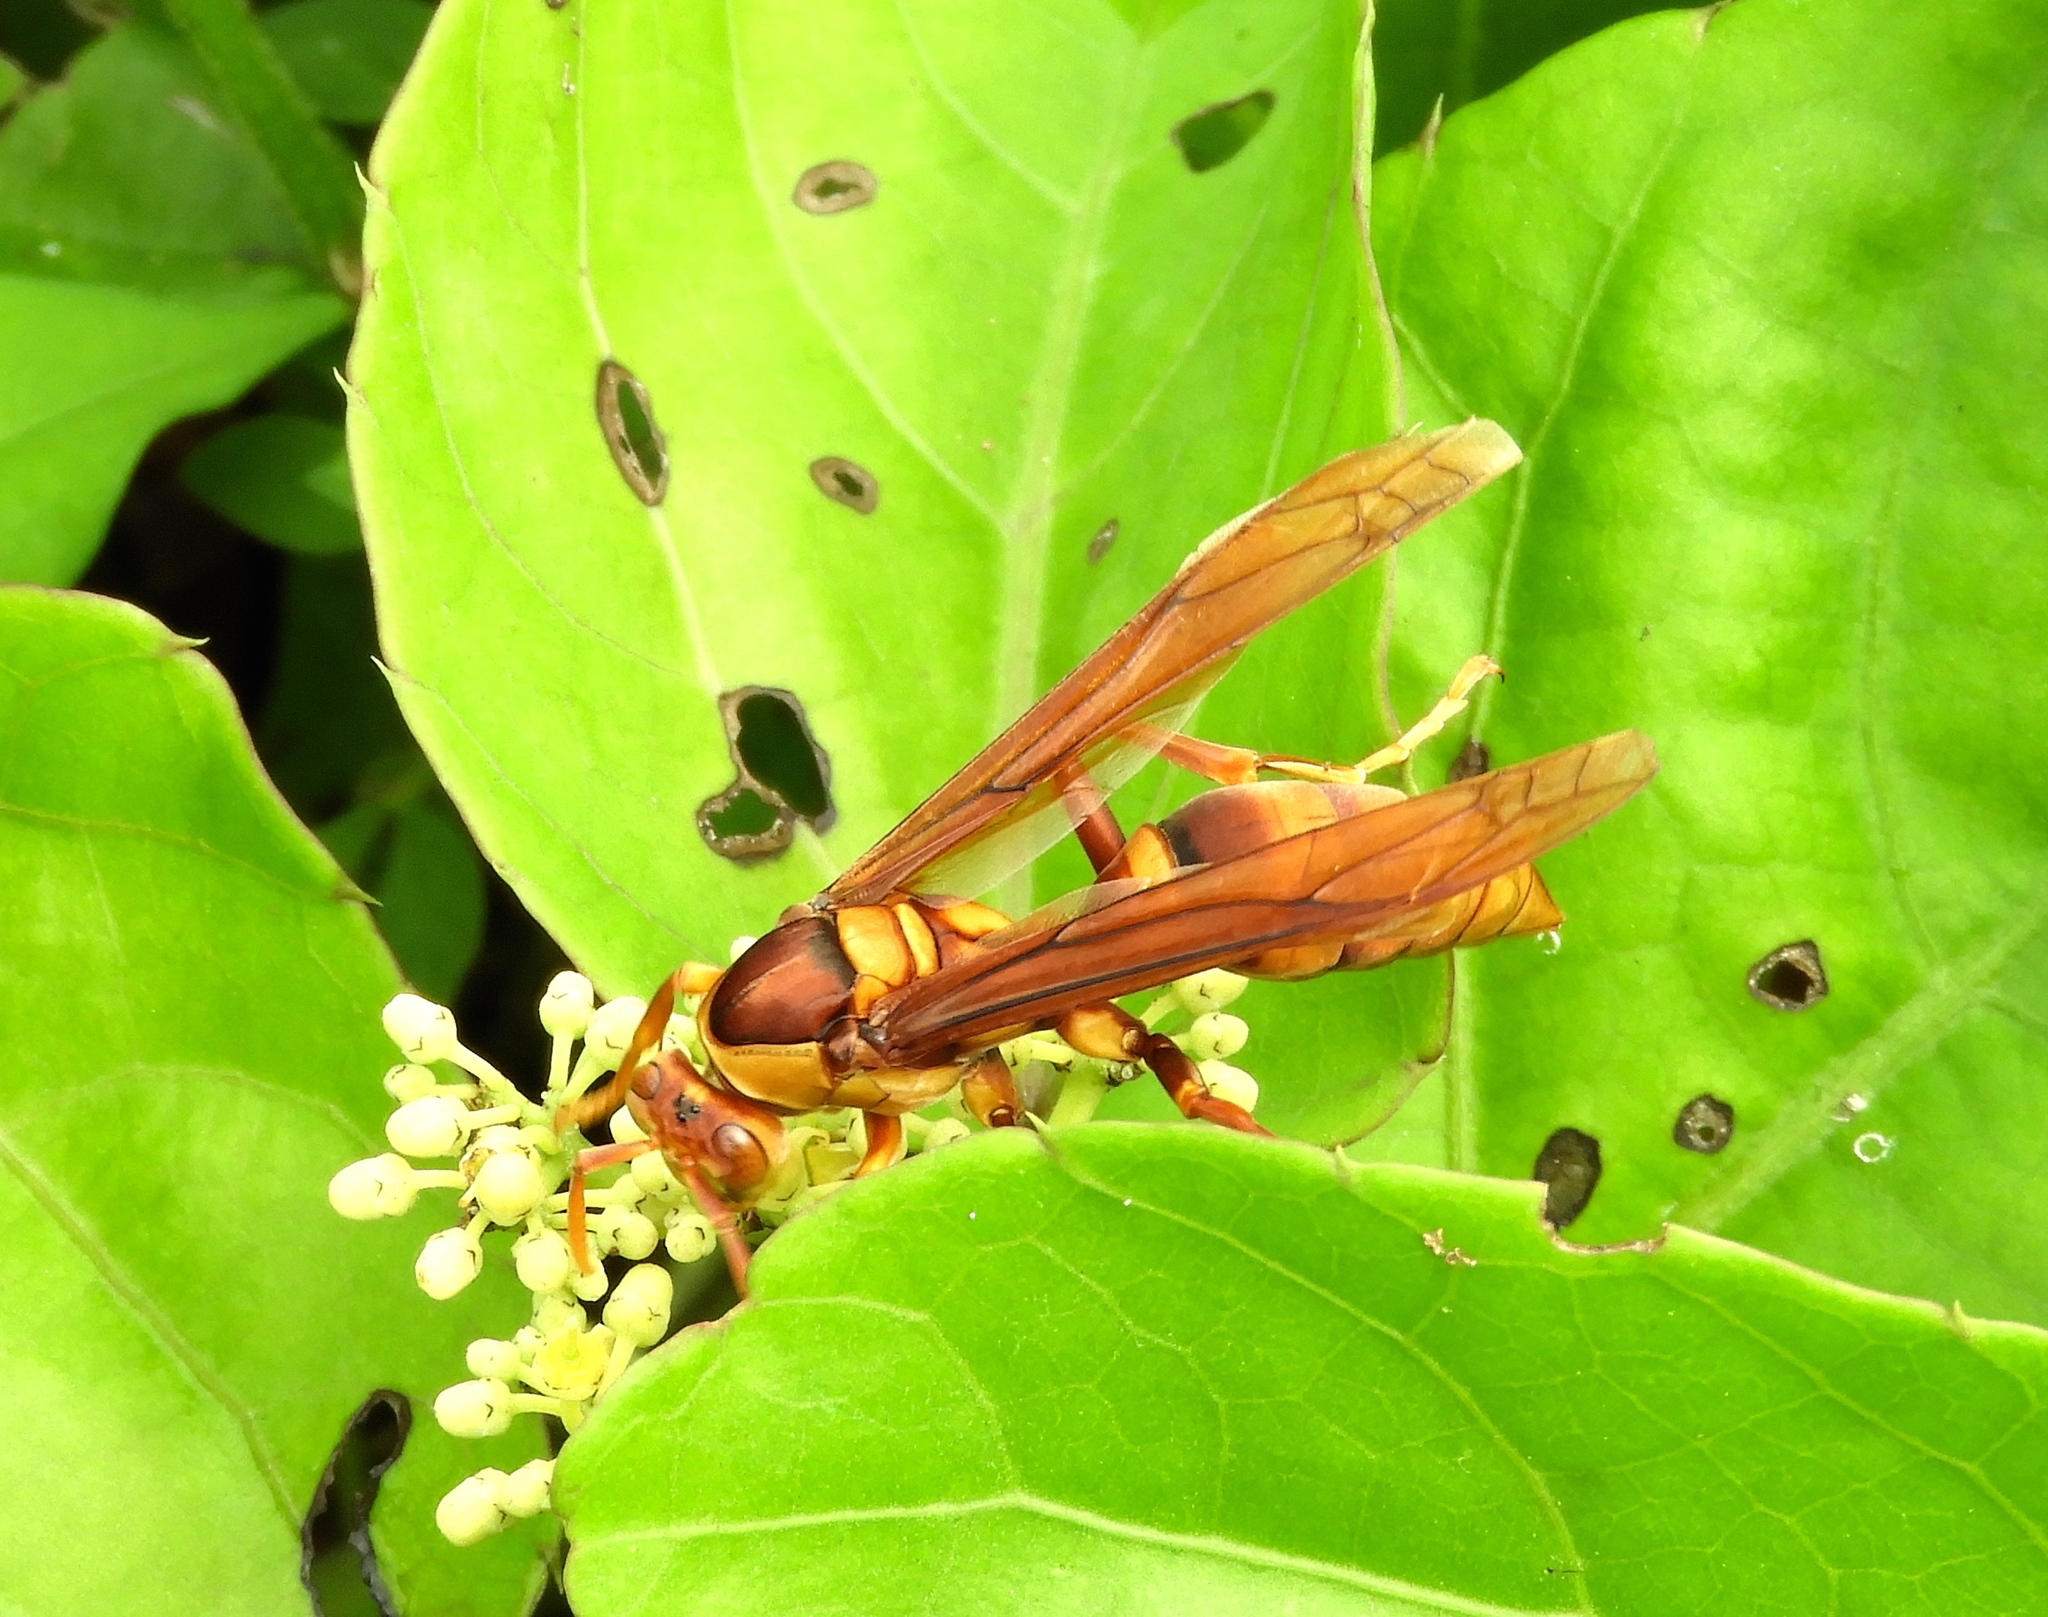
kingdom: Animalia
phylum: Arthropoda
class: Insecta
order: Hymenoptera
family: Eumenidae
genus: Polistes
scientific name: Polistes carnifex
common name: Paper wasp
